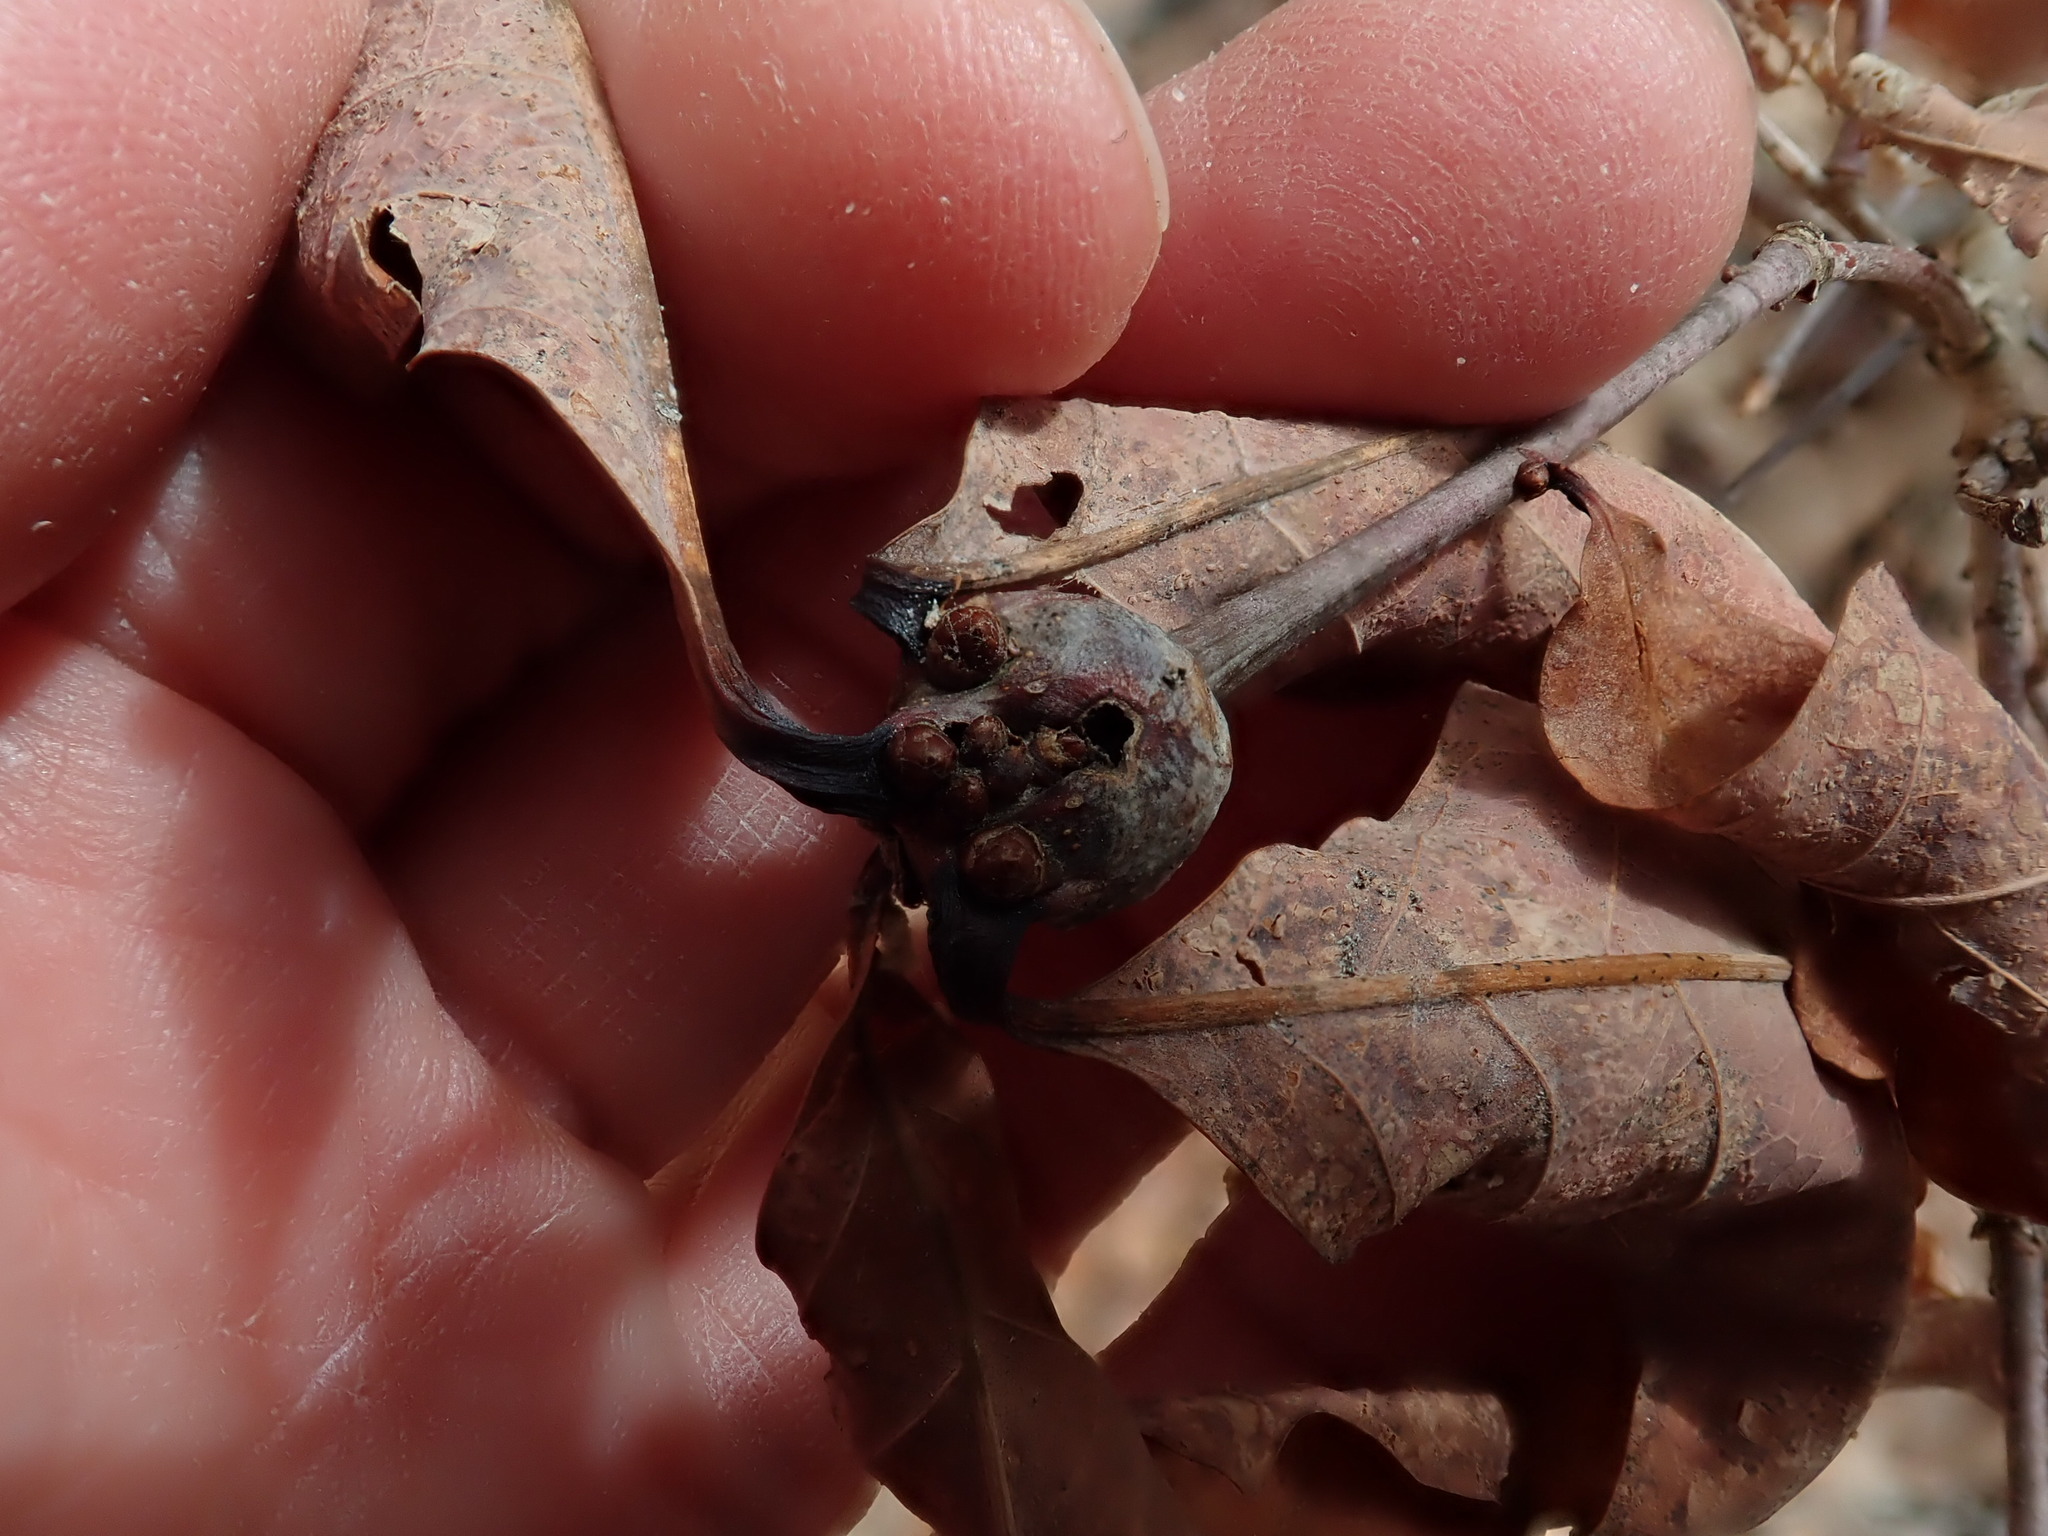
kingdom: Animalia
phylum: Arthropoda
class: Insecta
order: Hymenoptera
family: Cynipidae
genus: Callirhytis
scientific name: Callirhytis clavula
